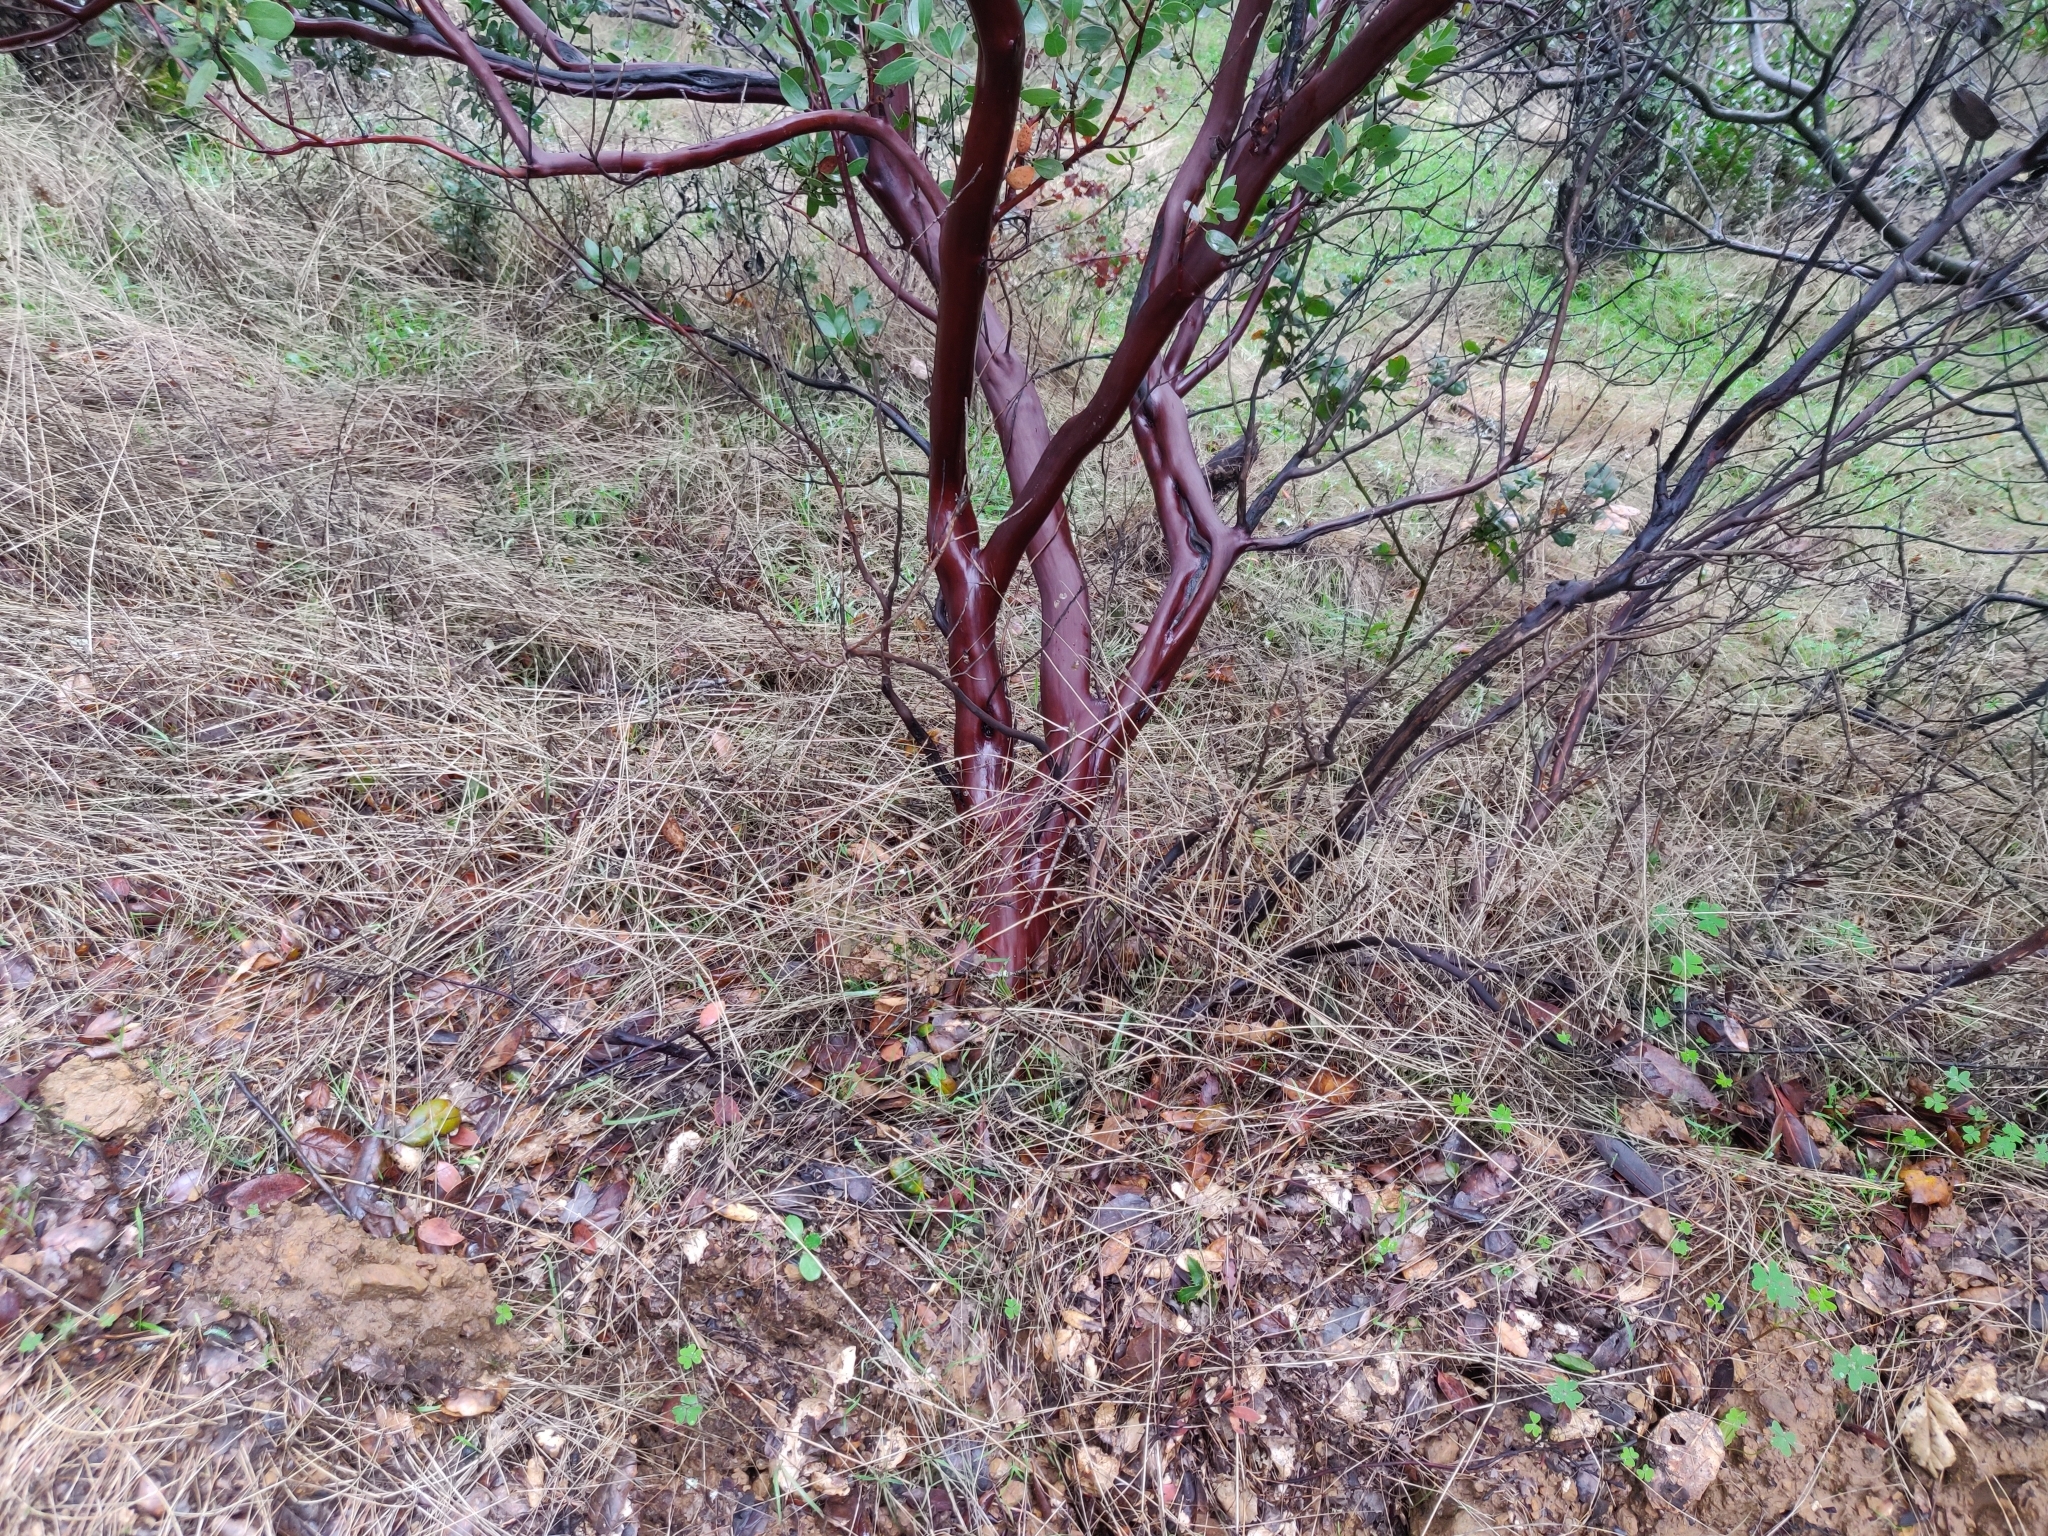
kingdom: Plantae
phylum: Tracheophyta
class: Magnoliopsida
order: Ericales
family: Ericaceae
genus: Arctostaphylos
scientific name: Arctostaphylos manzanita
